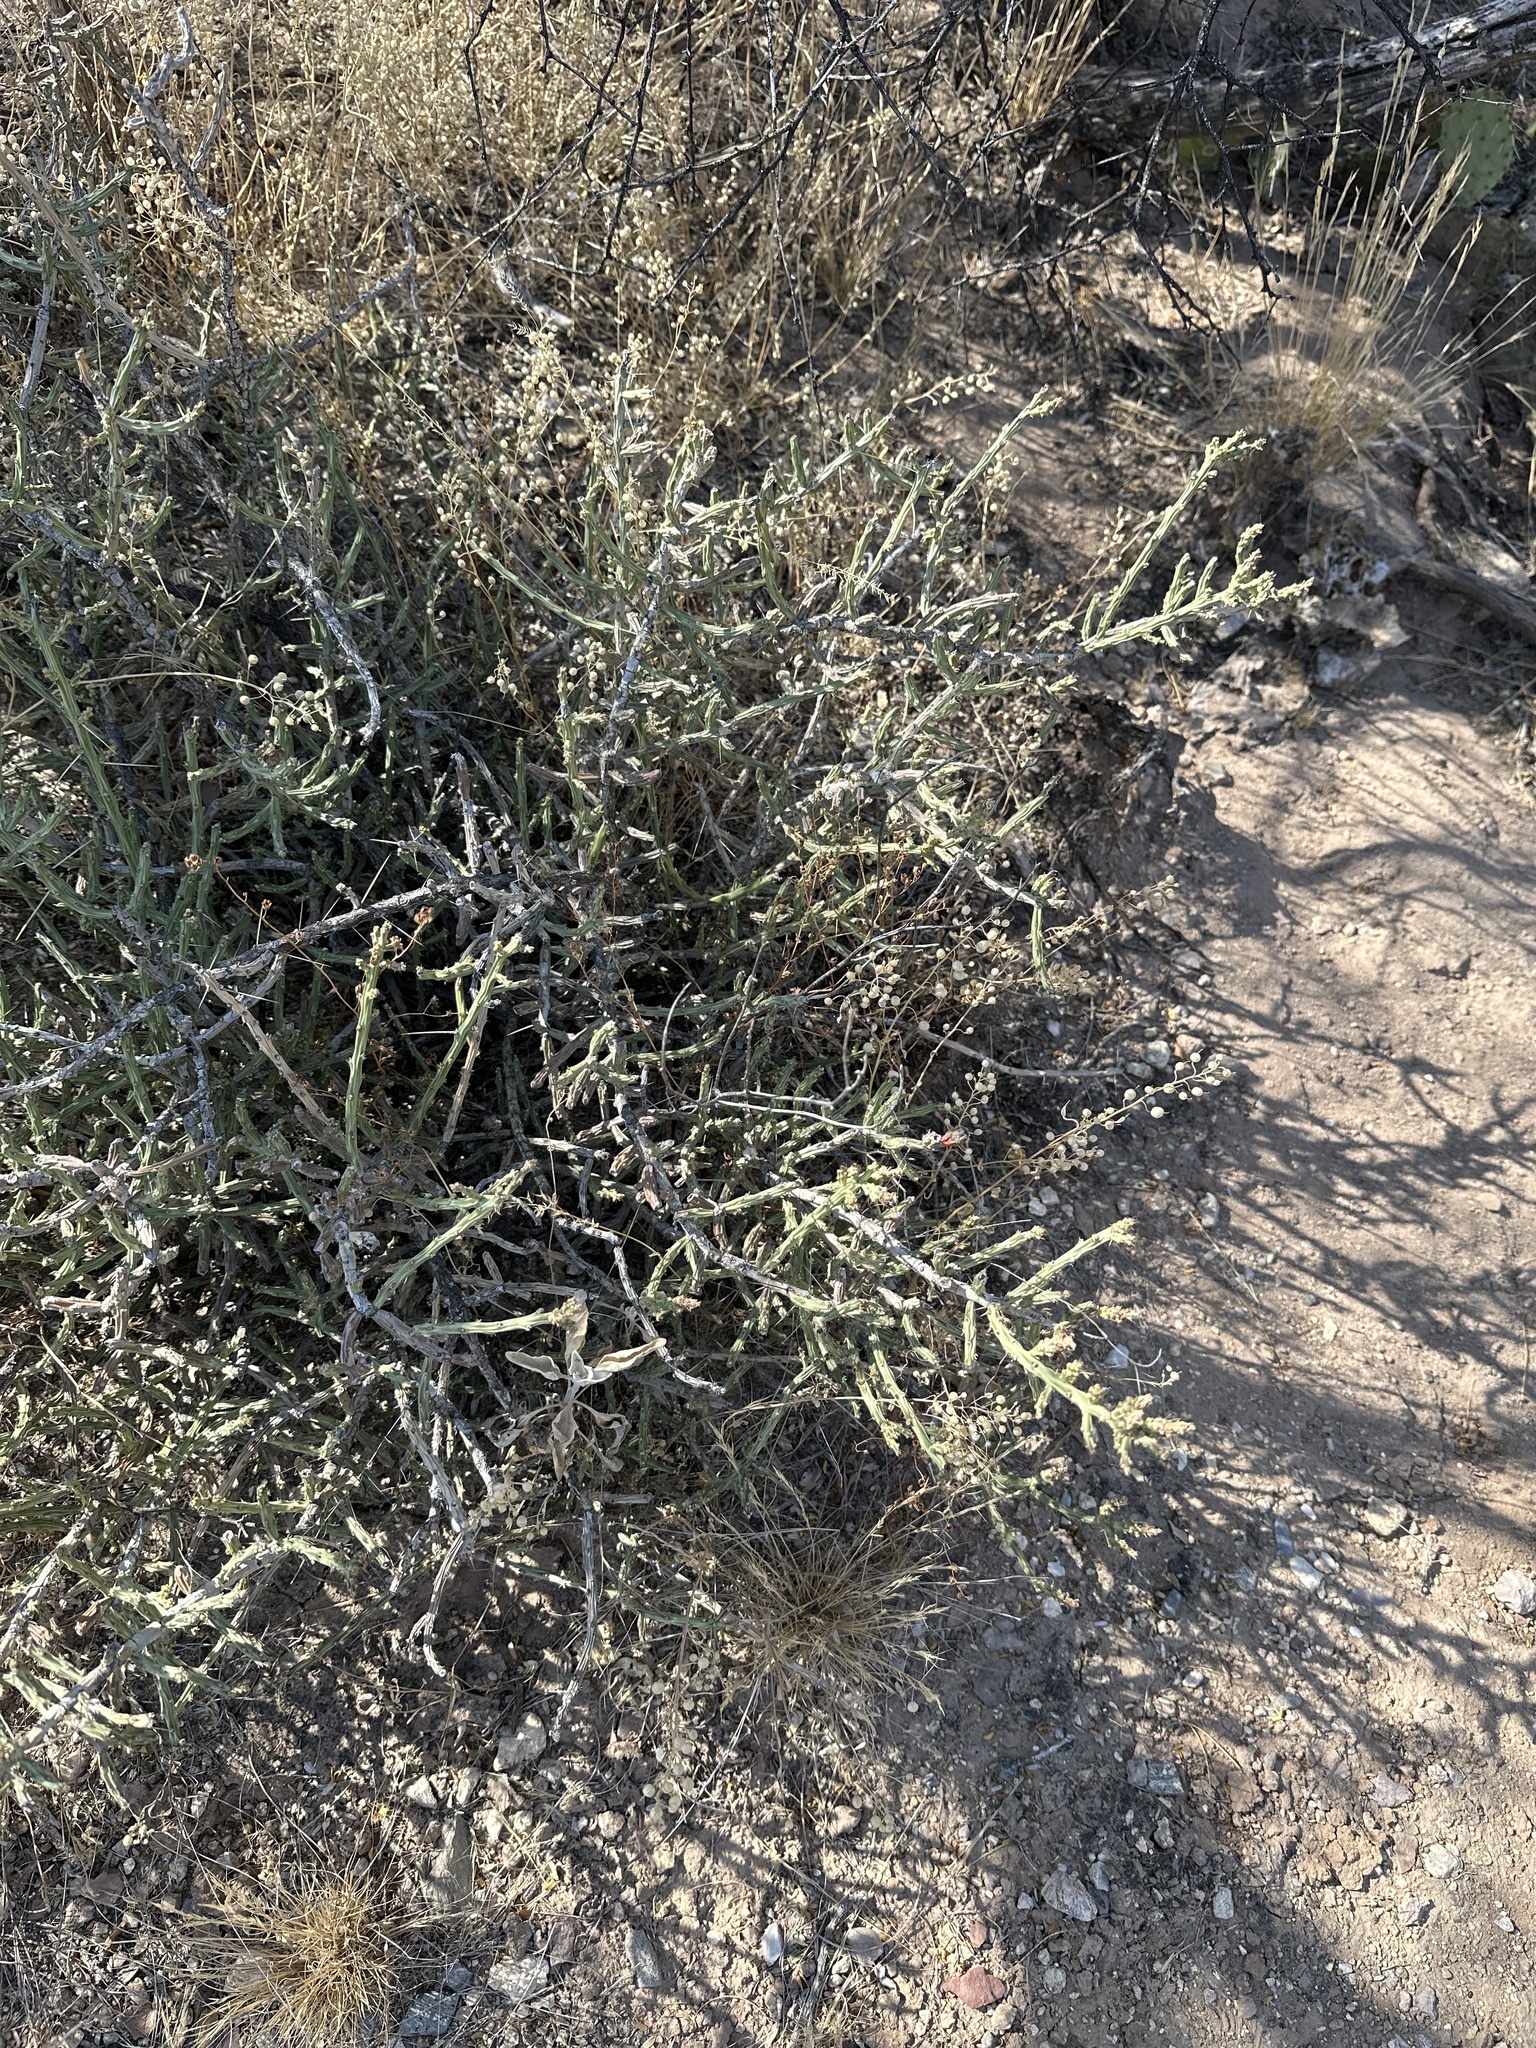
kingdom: Plantae
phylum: Tracheophyta
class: Magnoliopsida
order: Caryophyllales
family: Cactaceae
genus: Cylindropuntia
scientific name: Cylindropuntia leptocaulis
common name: Christmas cactus
